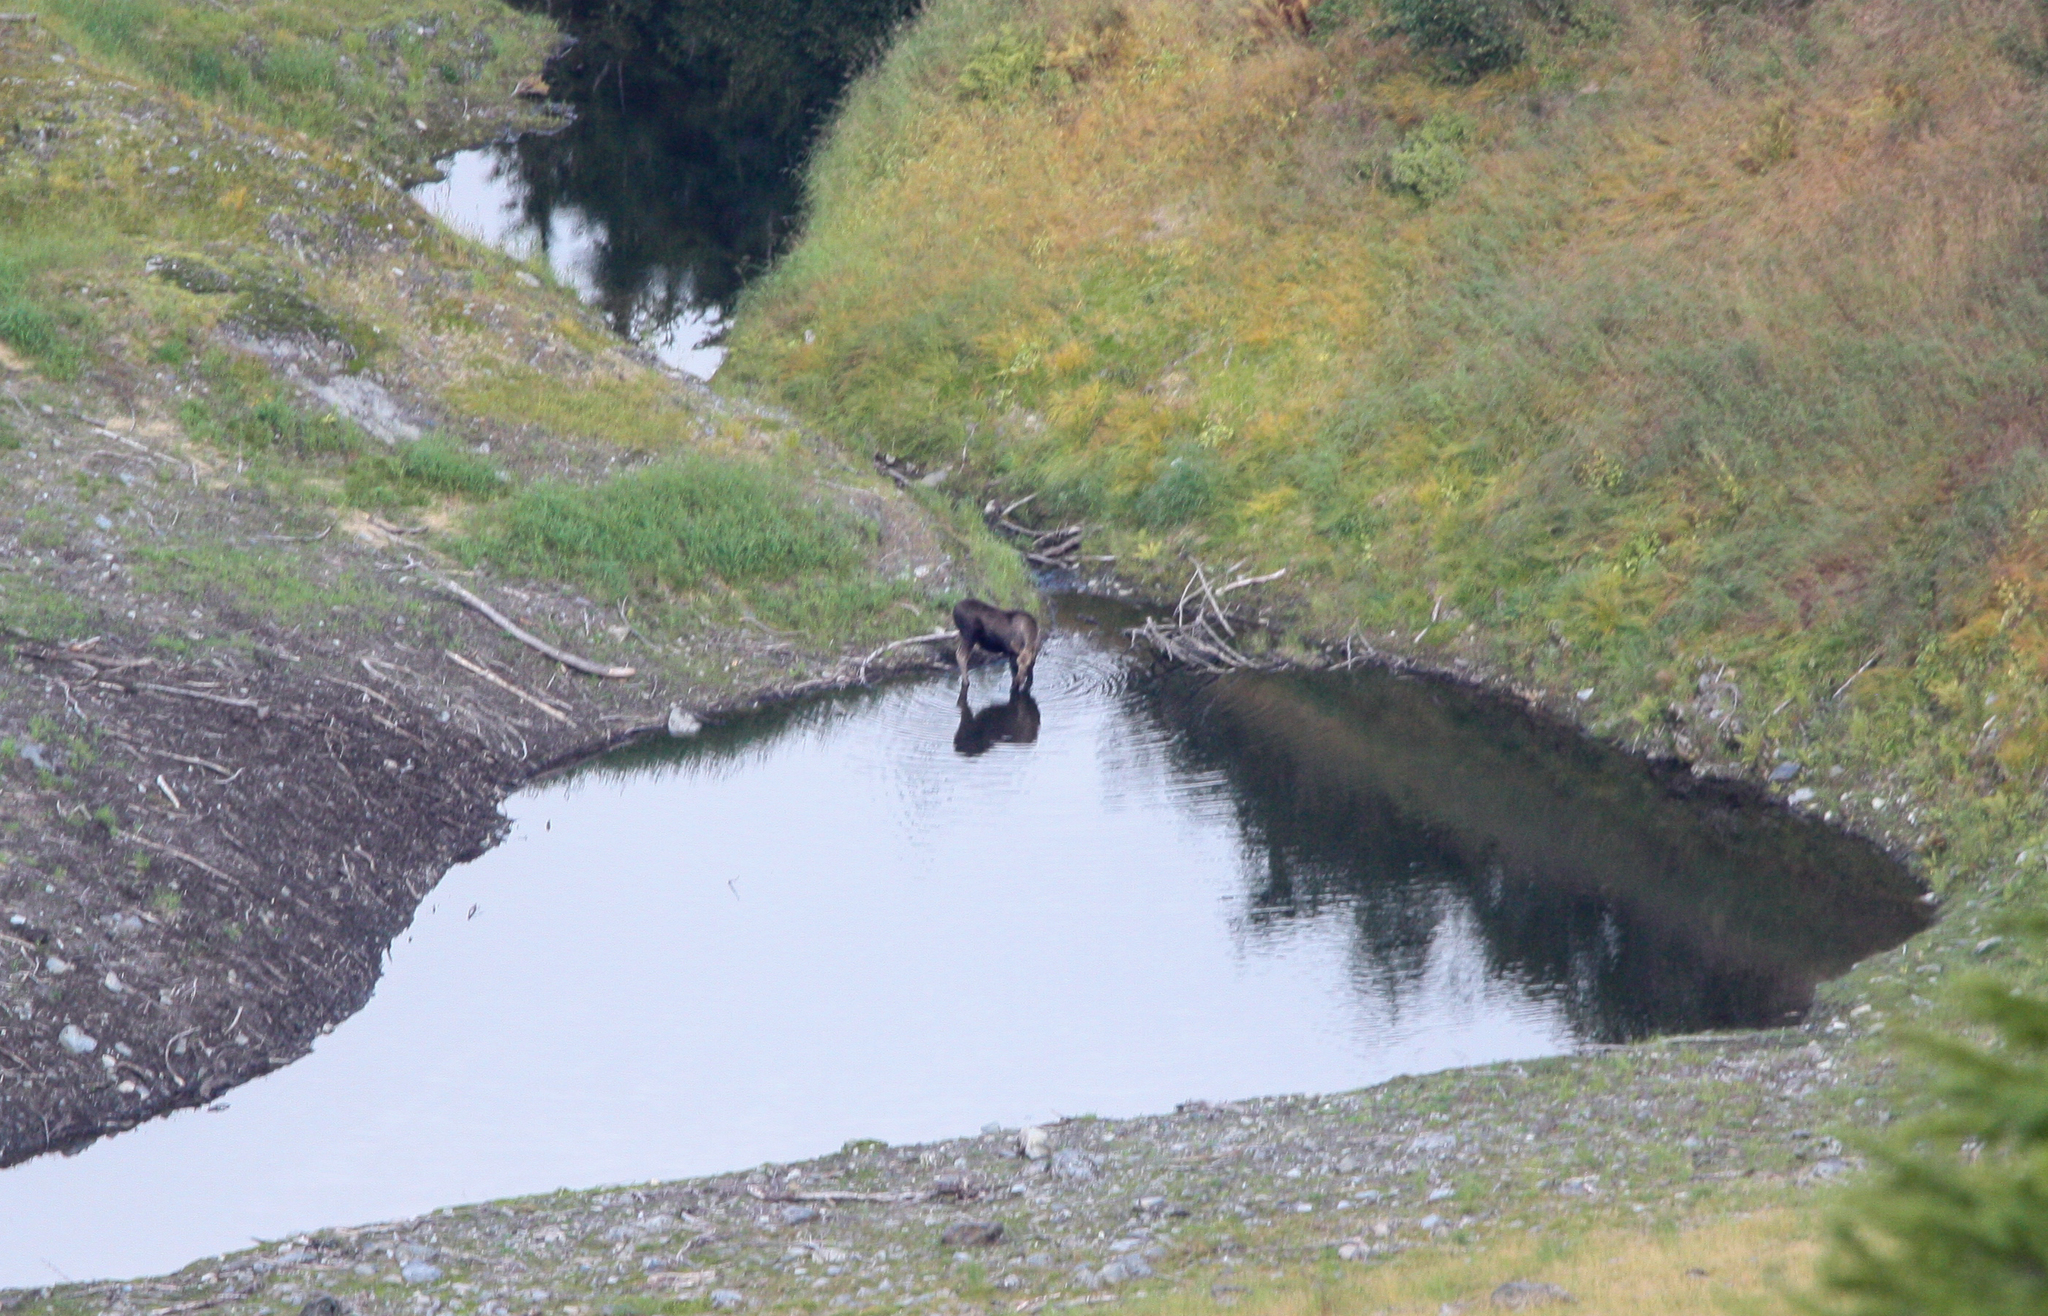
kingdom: Animalia
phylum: Chordata
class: Mammalia
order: Artiodactyla
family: Cervidae
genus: Alces
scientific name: Alces alces
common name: Moose
